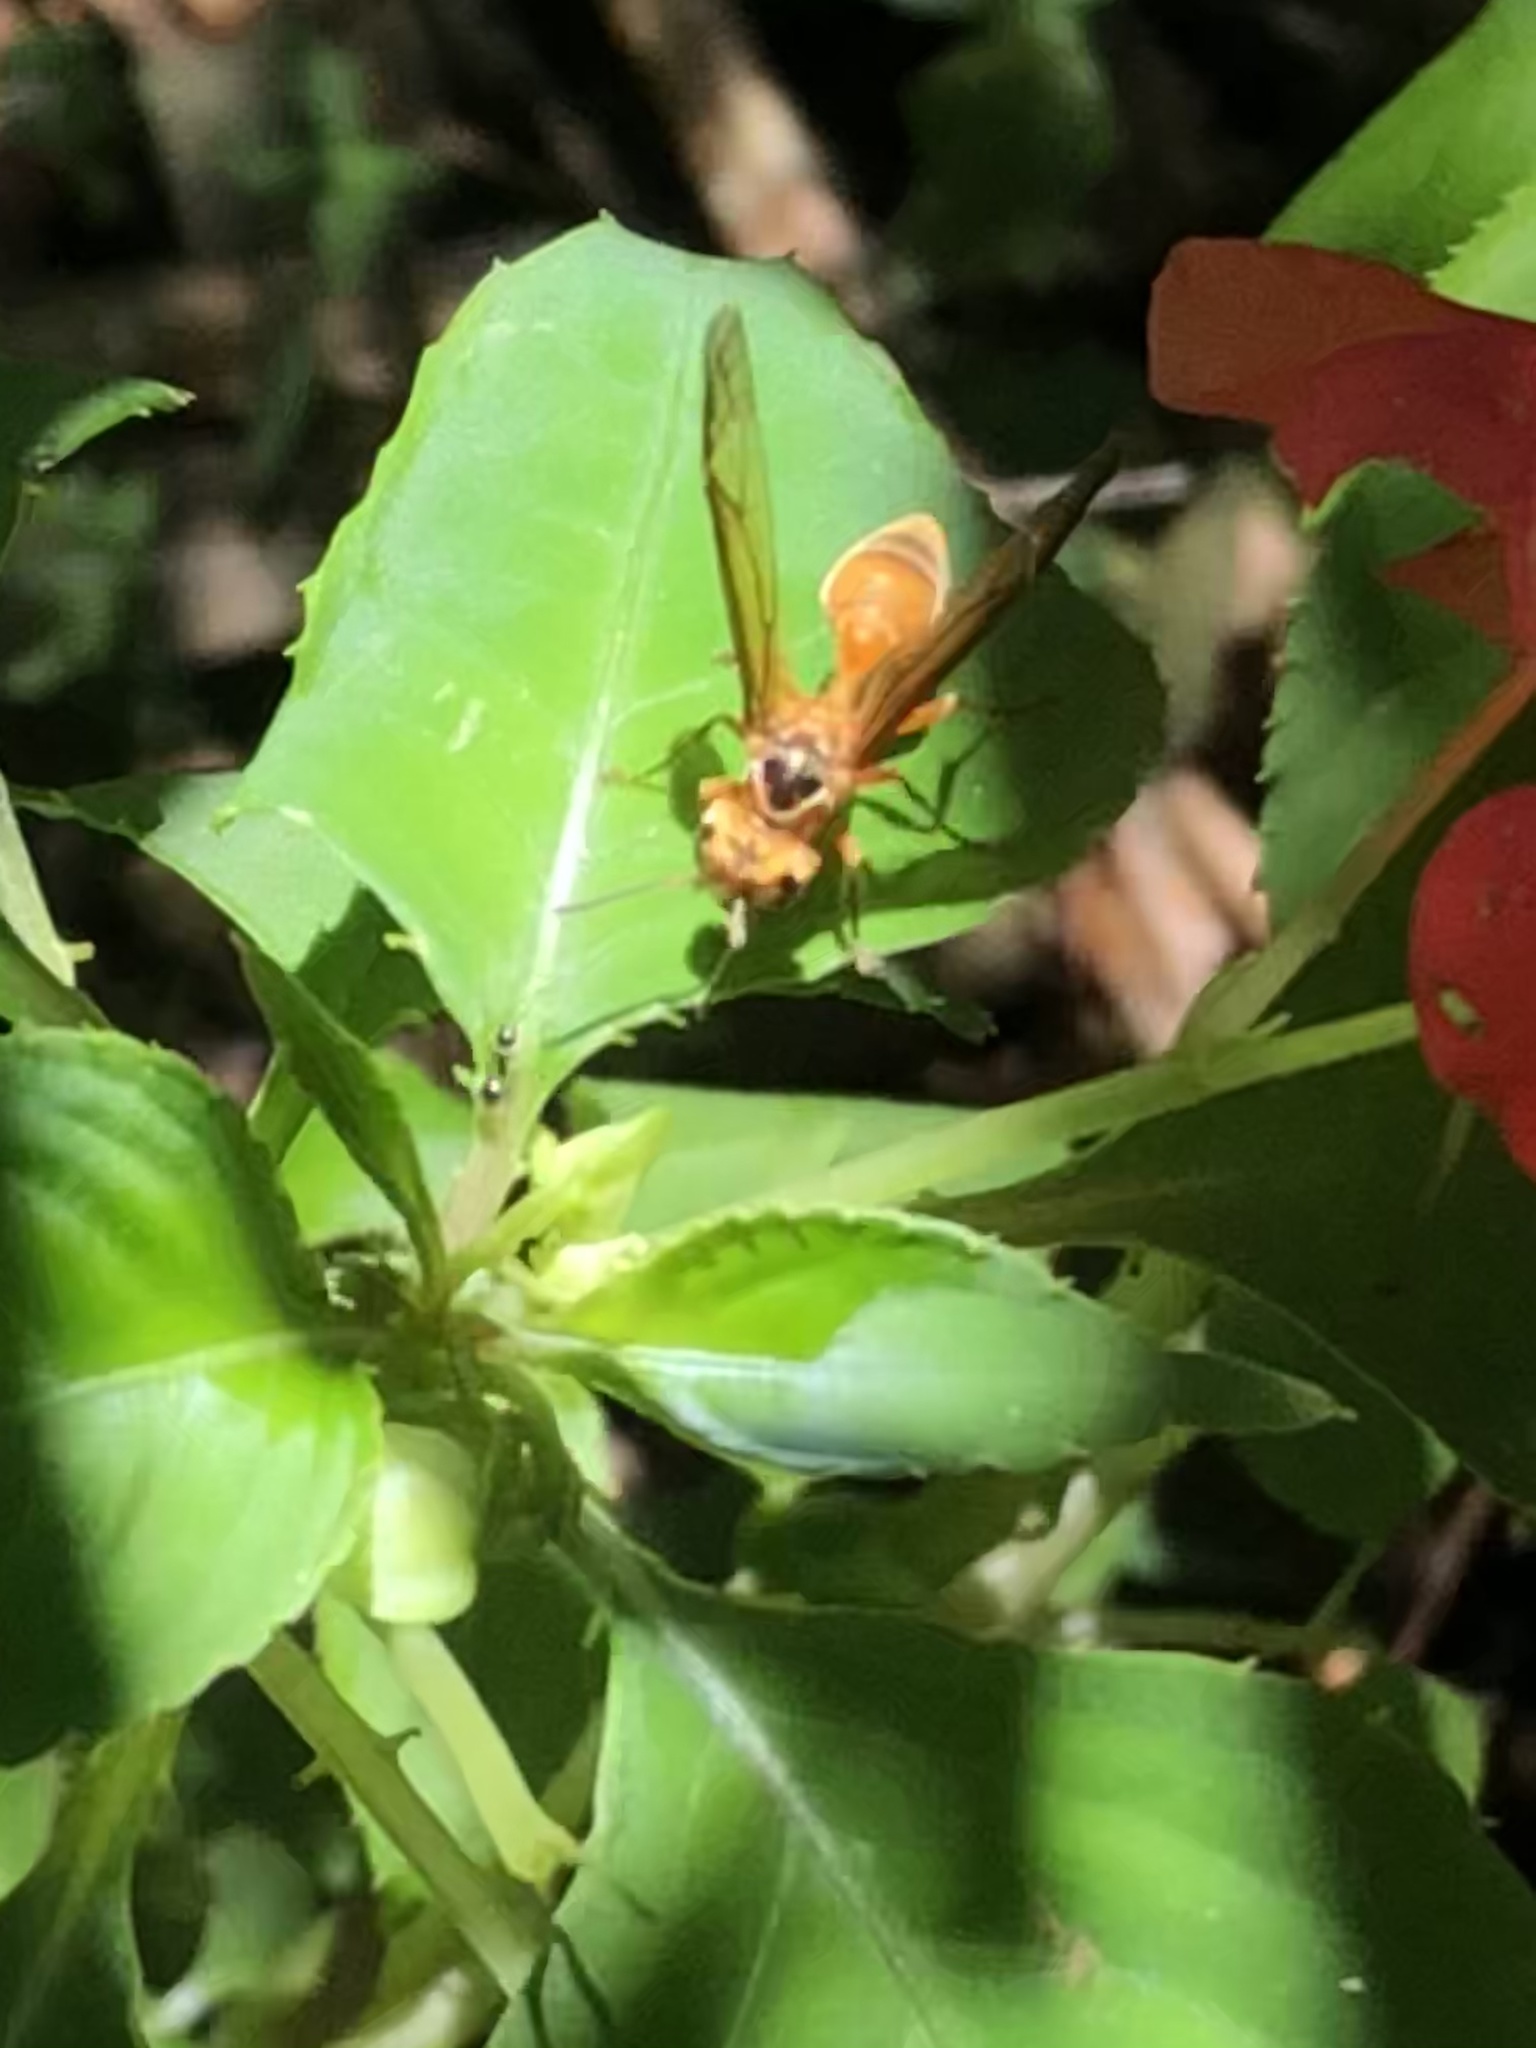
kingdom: Animalia
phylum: Arthropoda
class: Insecta
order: Hymenoptera
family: Vespidae
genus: Synoeca
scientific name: Synoeca virginea
